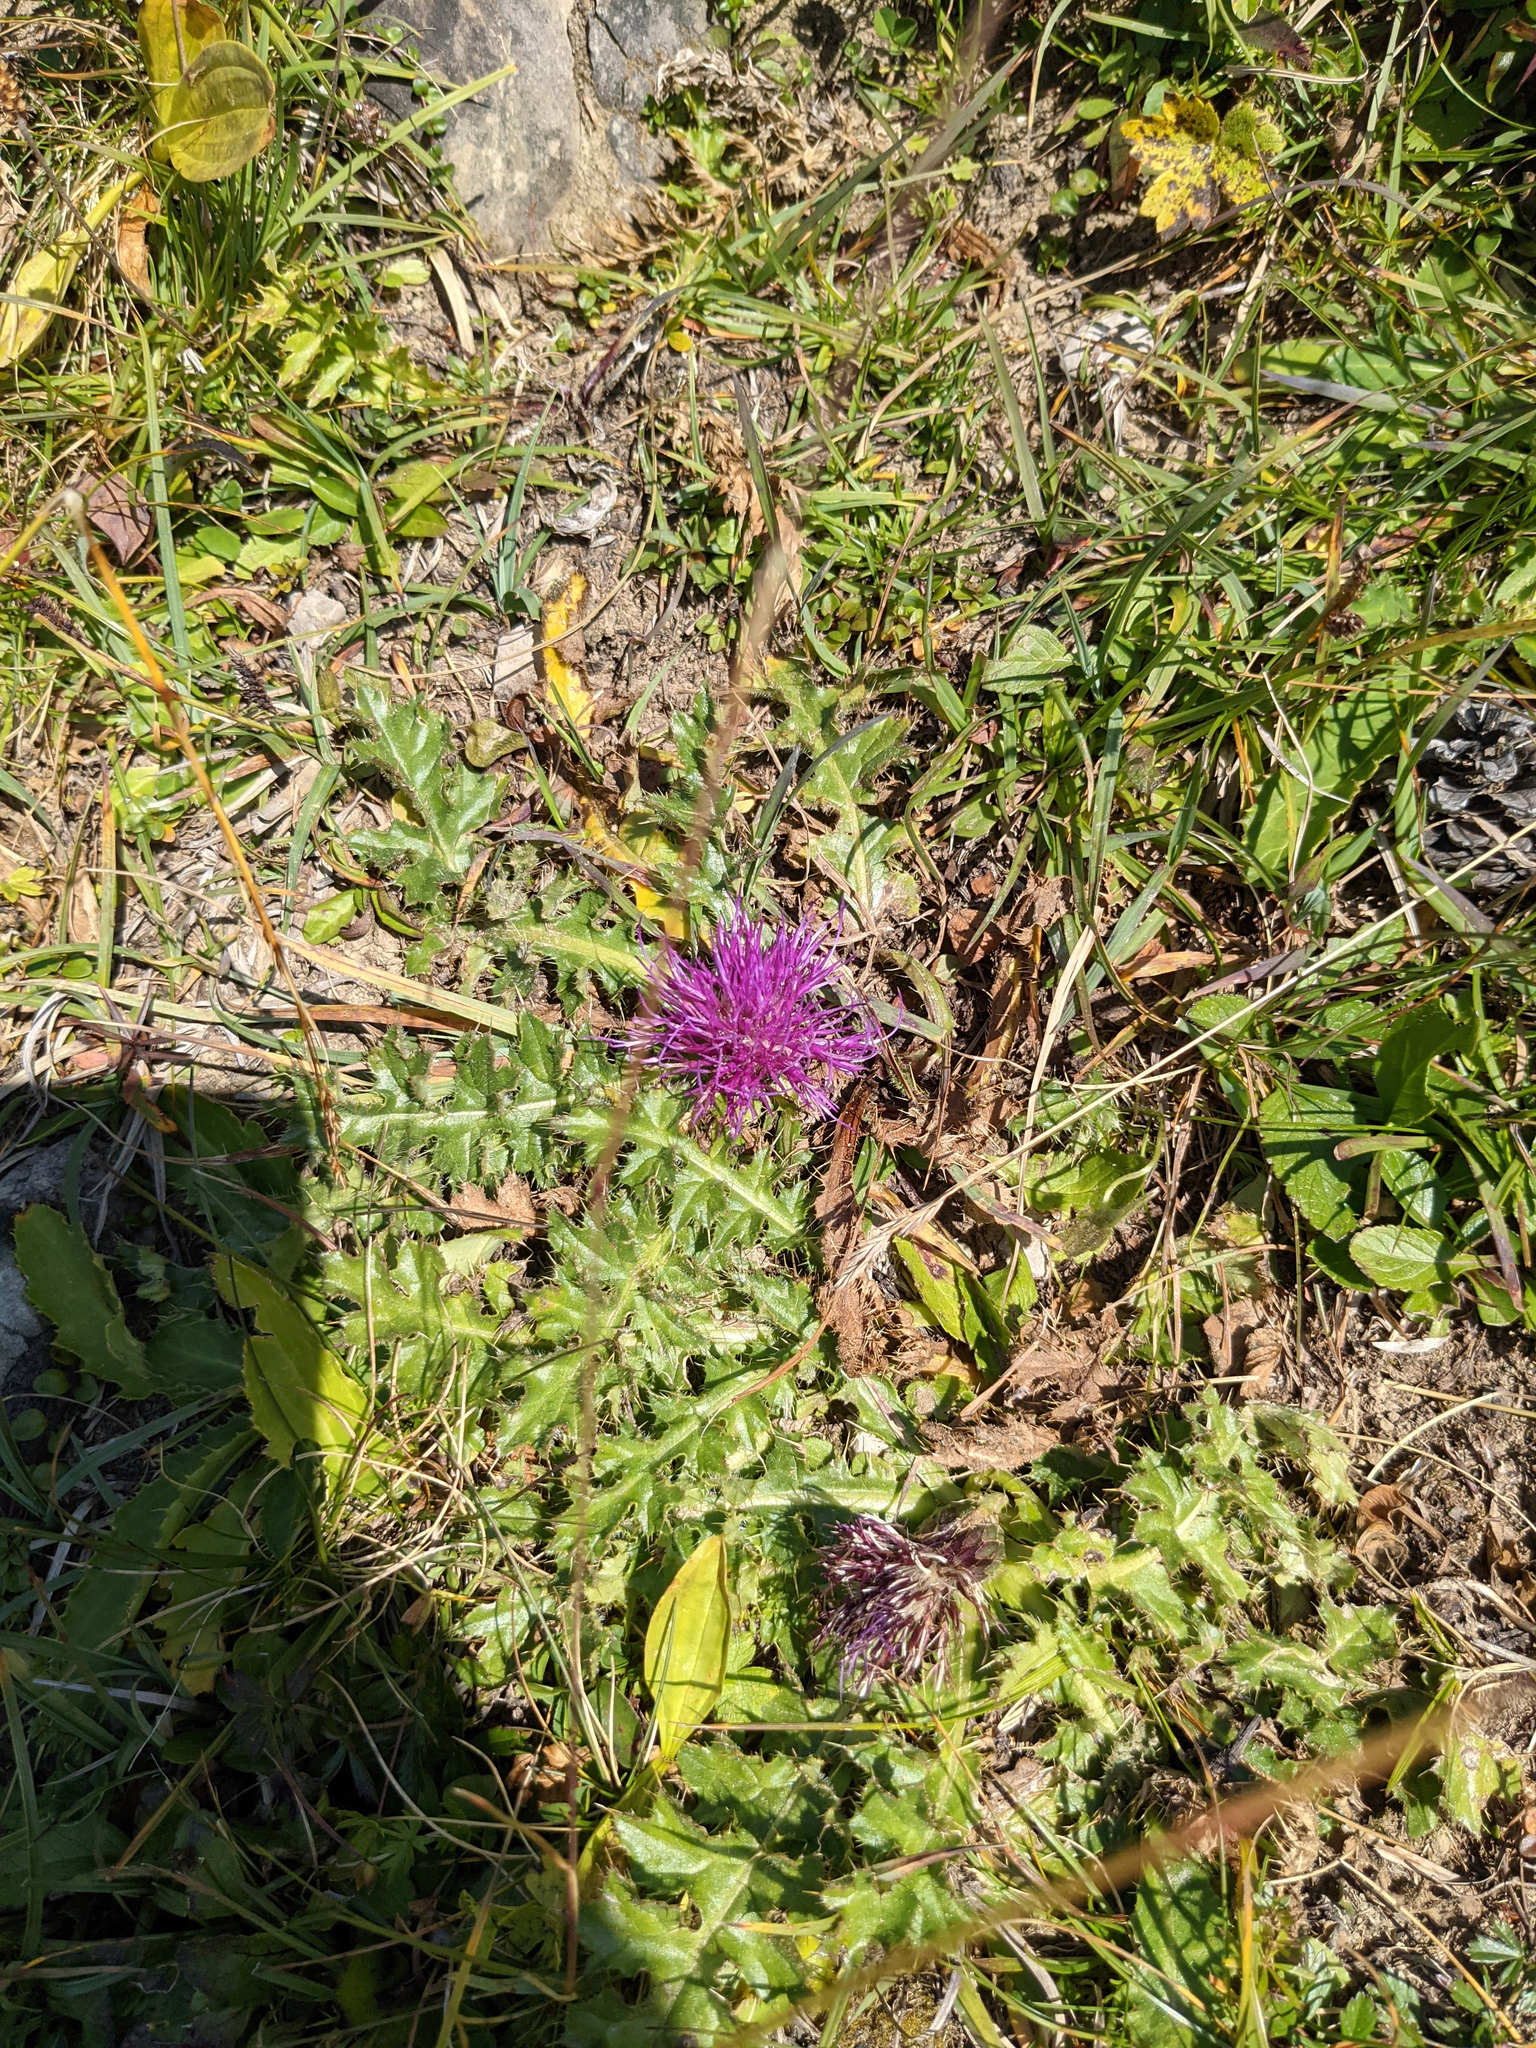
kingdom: Plantae
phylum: Tracheophyta
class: Magnoliopsida
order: Asterales
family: Asteraceae
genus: Cirsium
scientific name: Cirsium acaulon
